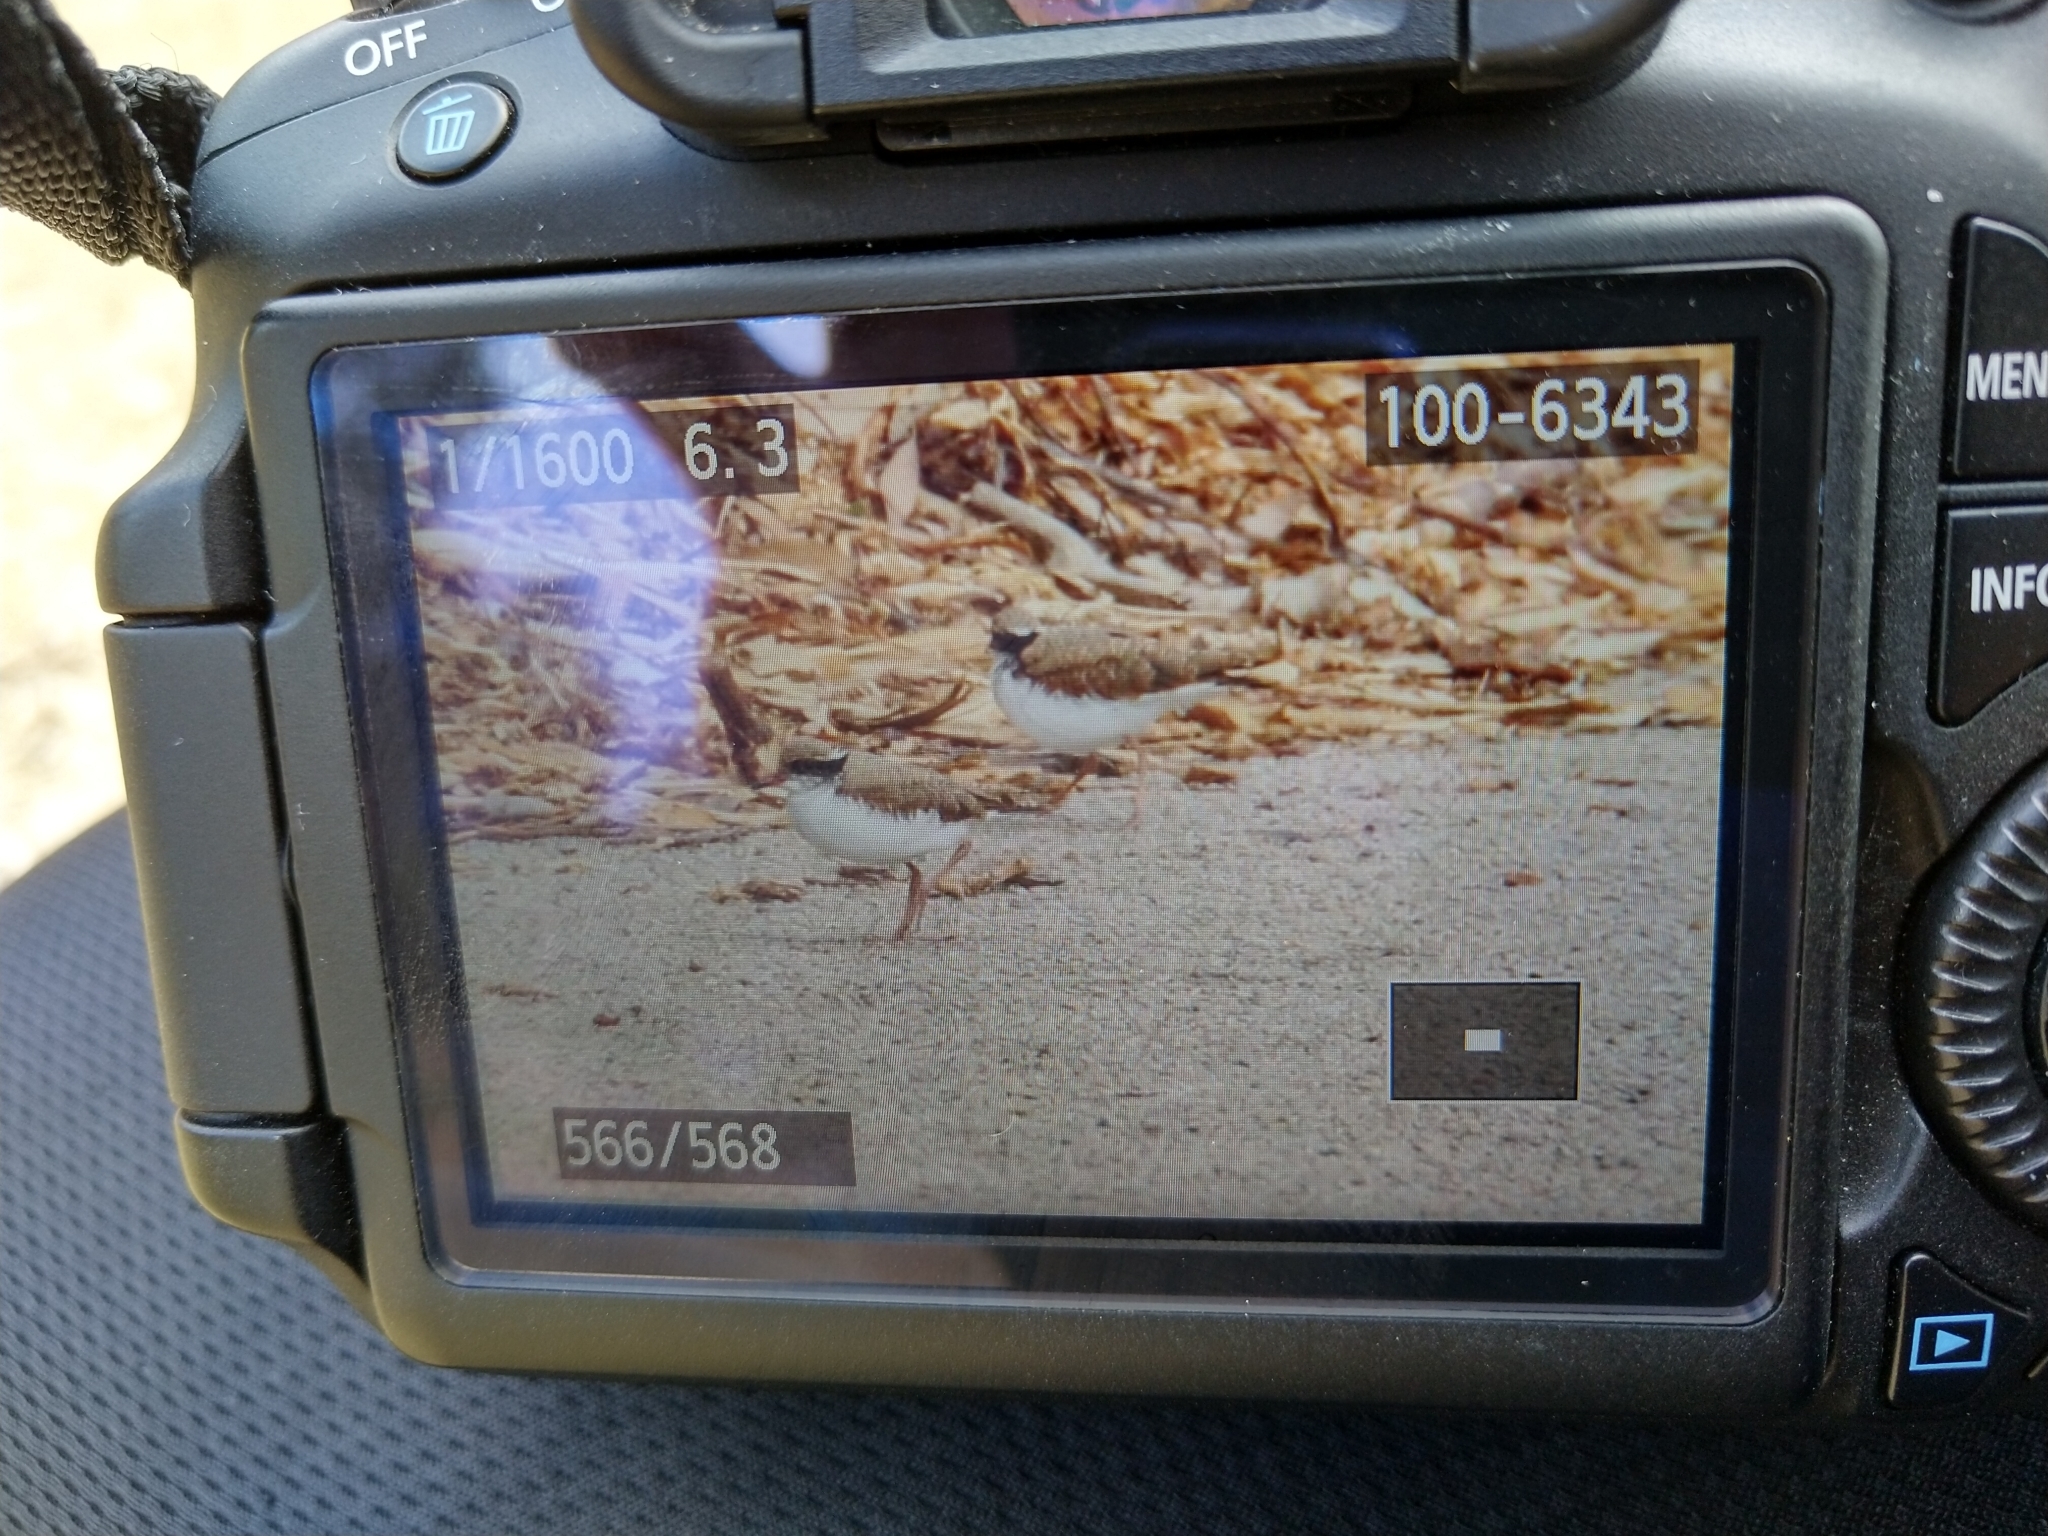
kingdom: Animalia
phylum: Chordata
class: Aves
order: Charadriiformes
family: Charadriidae
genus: Elseyornis
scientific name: Elseyornis melanops
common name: Black-fronted dotterel
